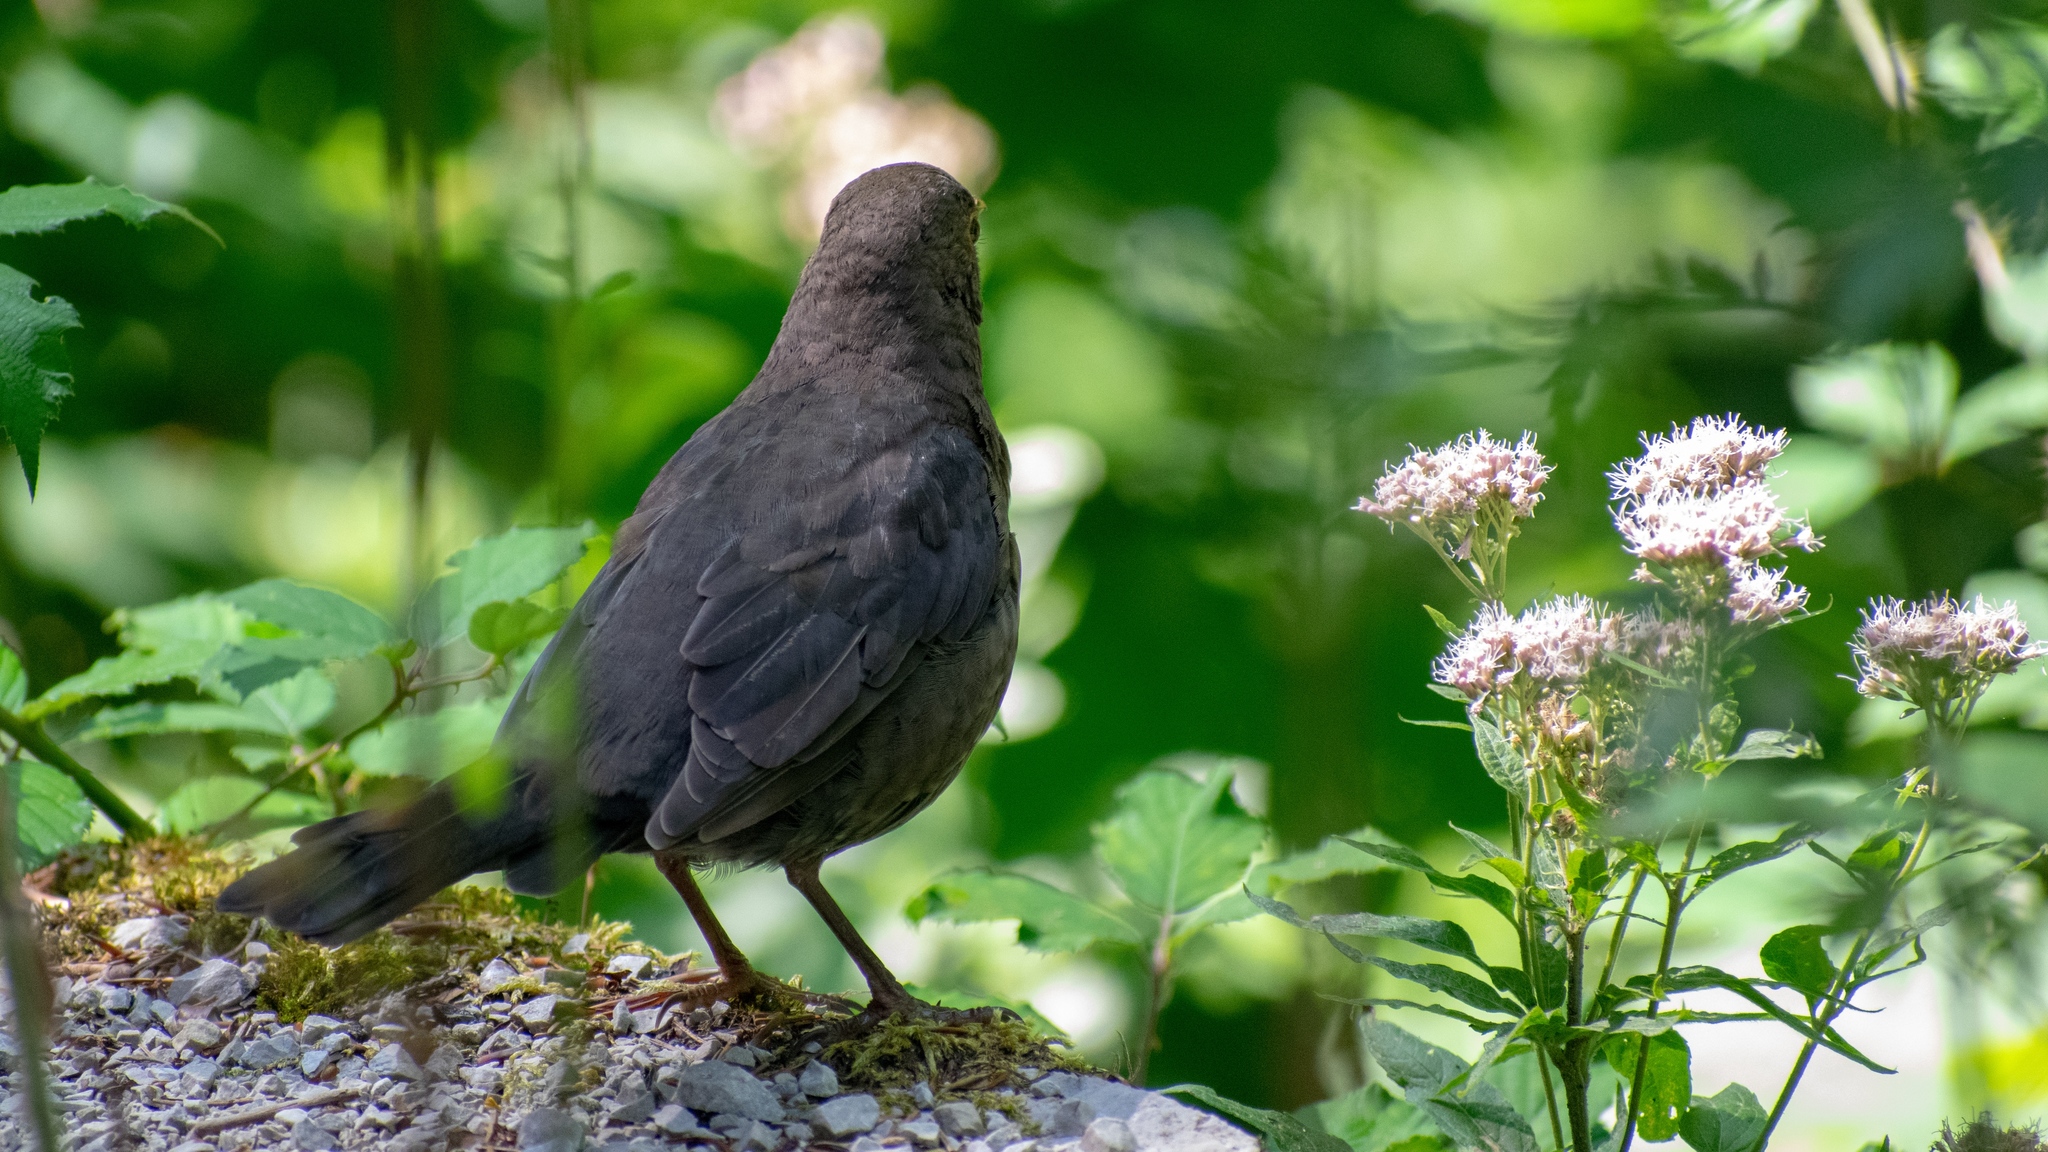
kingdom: Animalia
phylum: Chordata
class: Aves
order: Passeriformes
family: Turdidae
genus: Turdus
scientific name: Turdus merula
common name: Common blackbird
